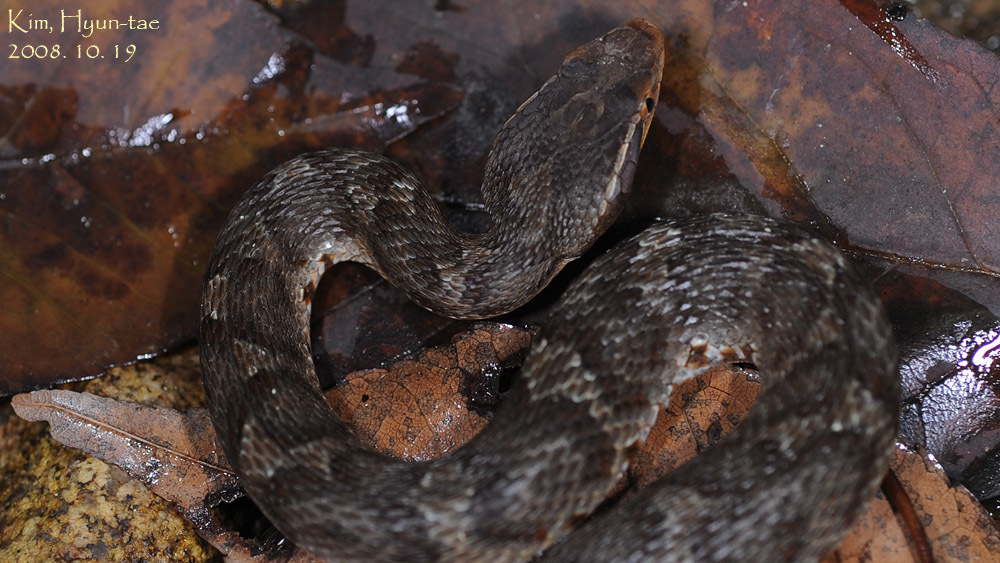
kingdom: Animalia
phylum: Chordata
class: Squamata
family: Viperidae
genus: Gloydius
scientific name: Gloydius ussuriensis
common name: Ussuri mamushi
